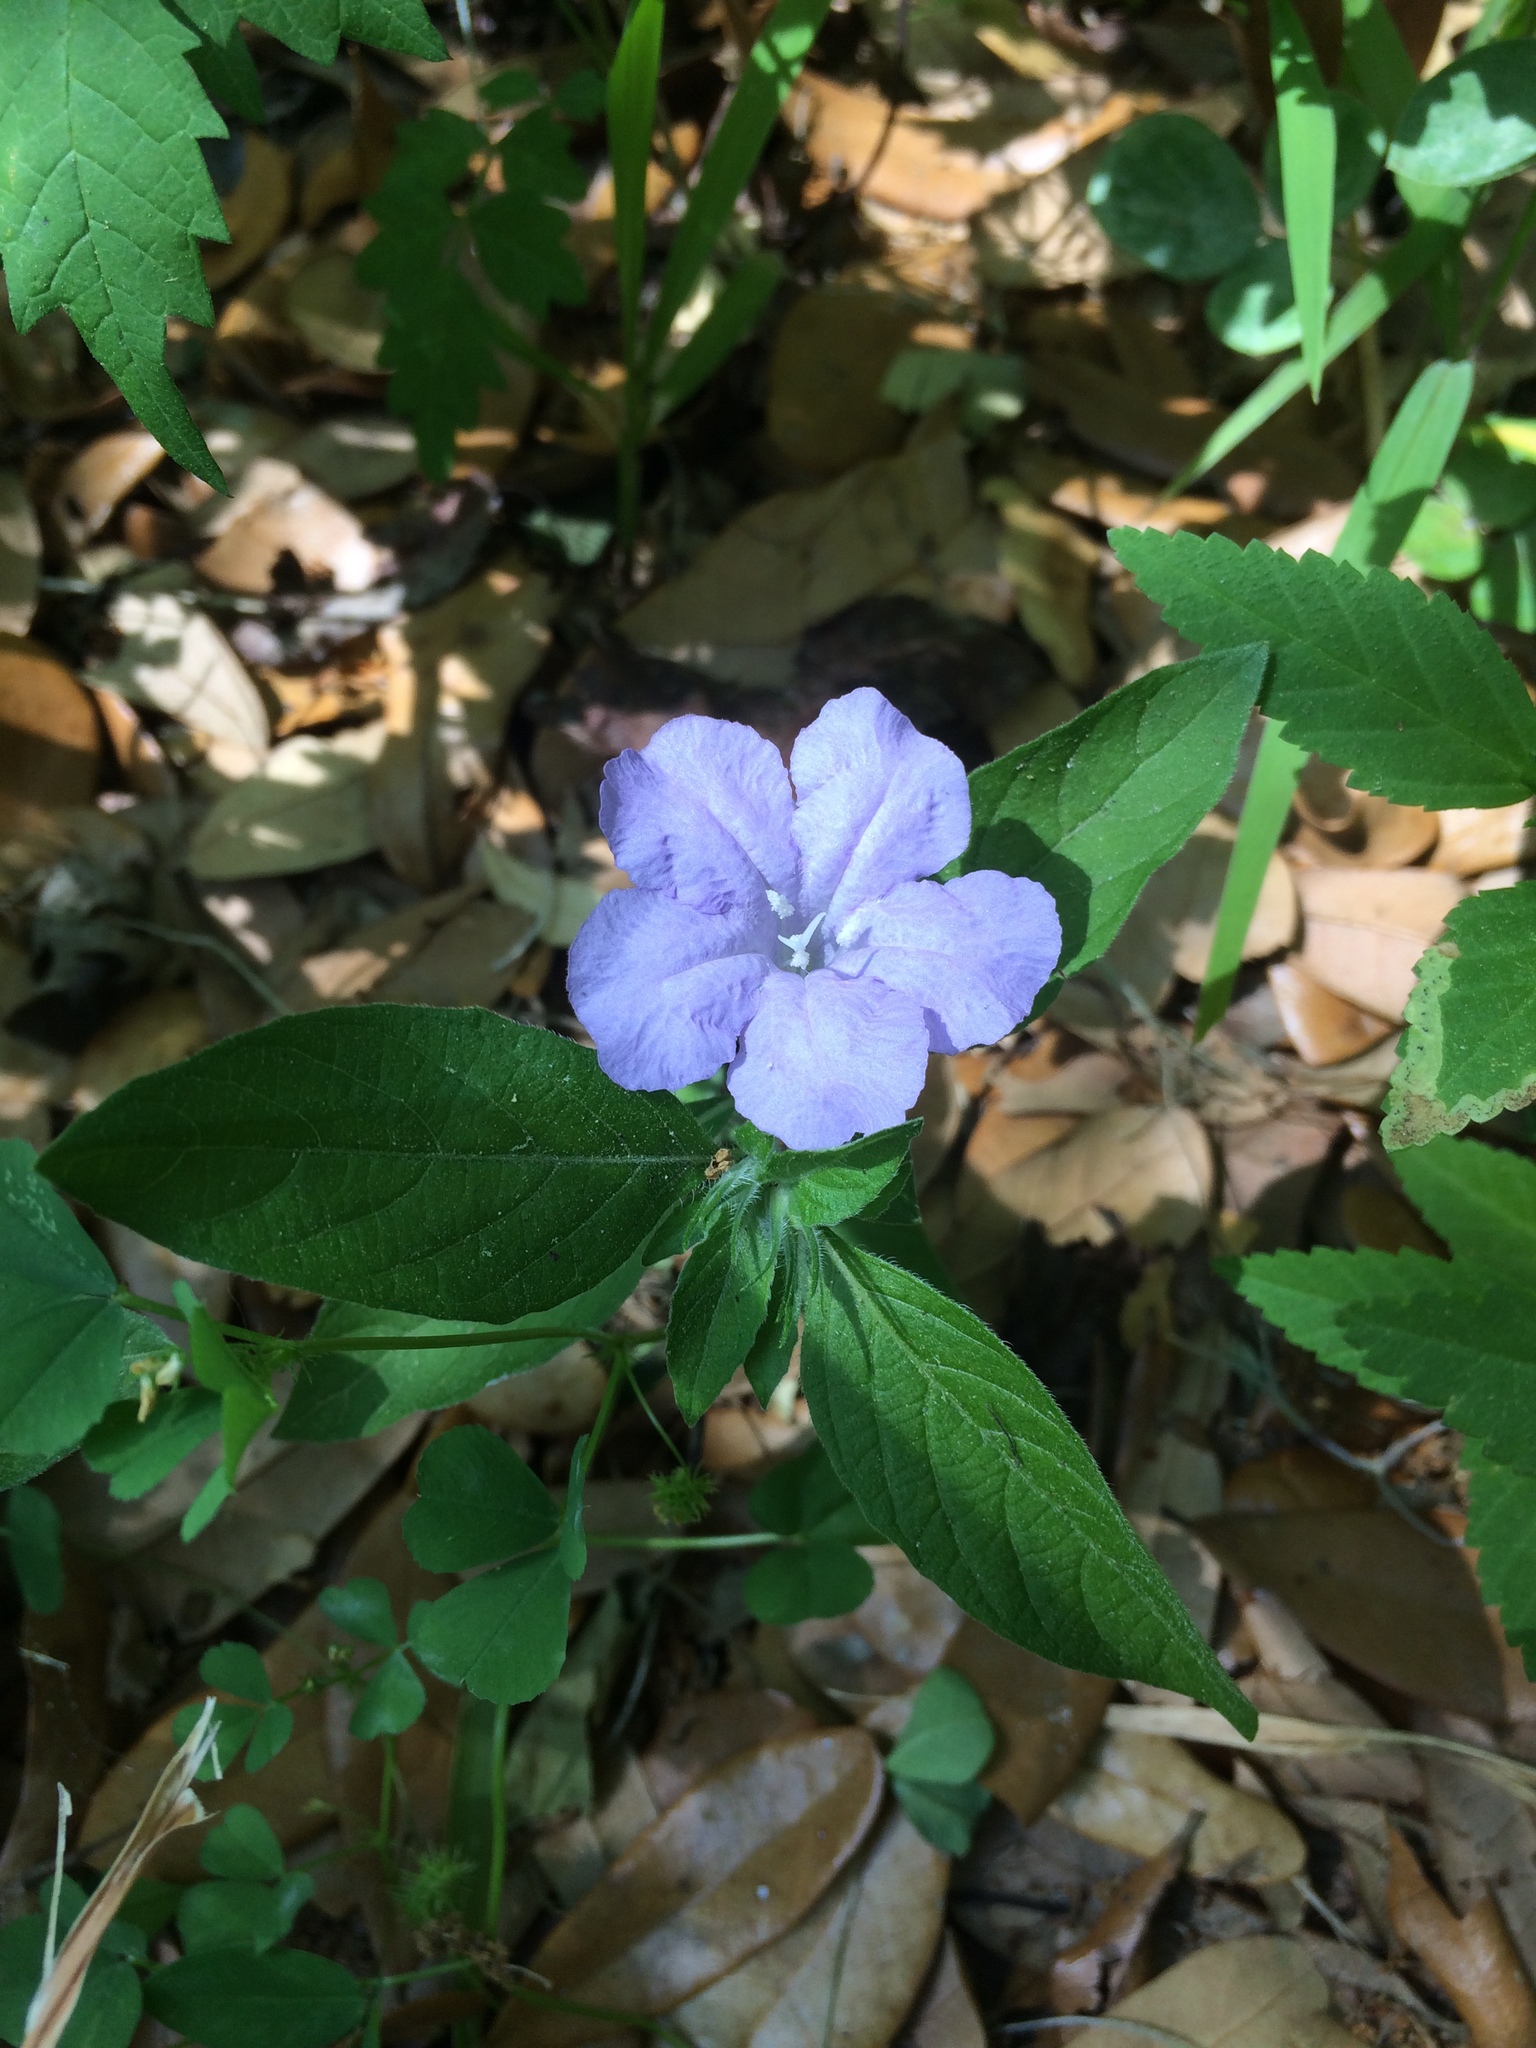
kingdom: Plantae
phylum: Tracheophyta
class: Magnoliopsida
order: Lamiales
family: Acanthaceae
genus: Ruellia
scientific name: Ruellia caroliniensis
